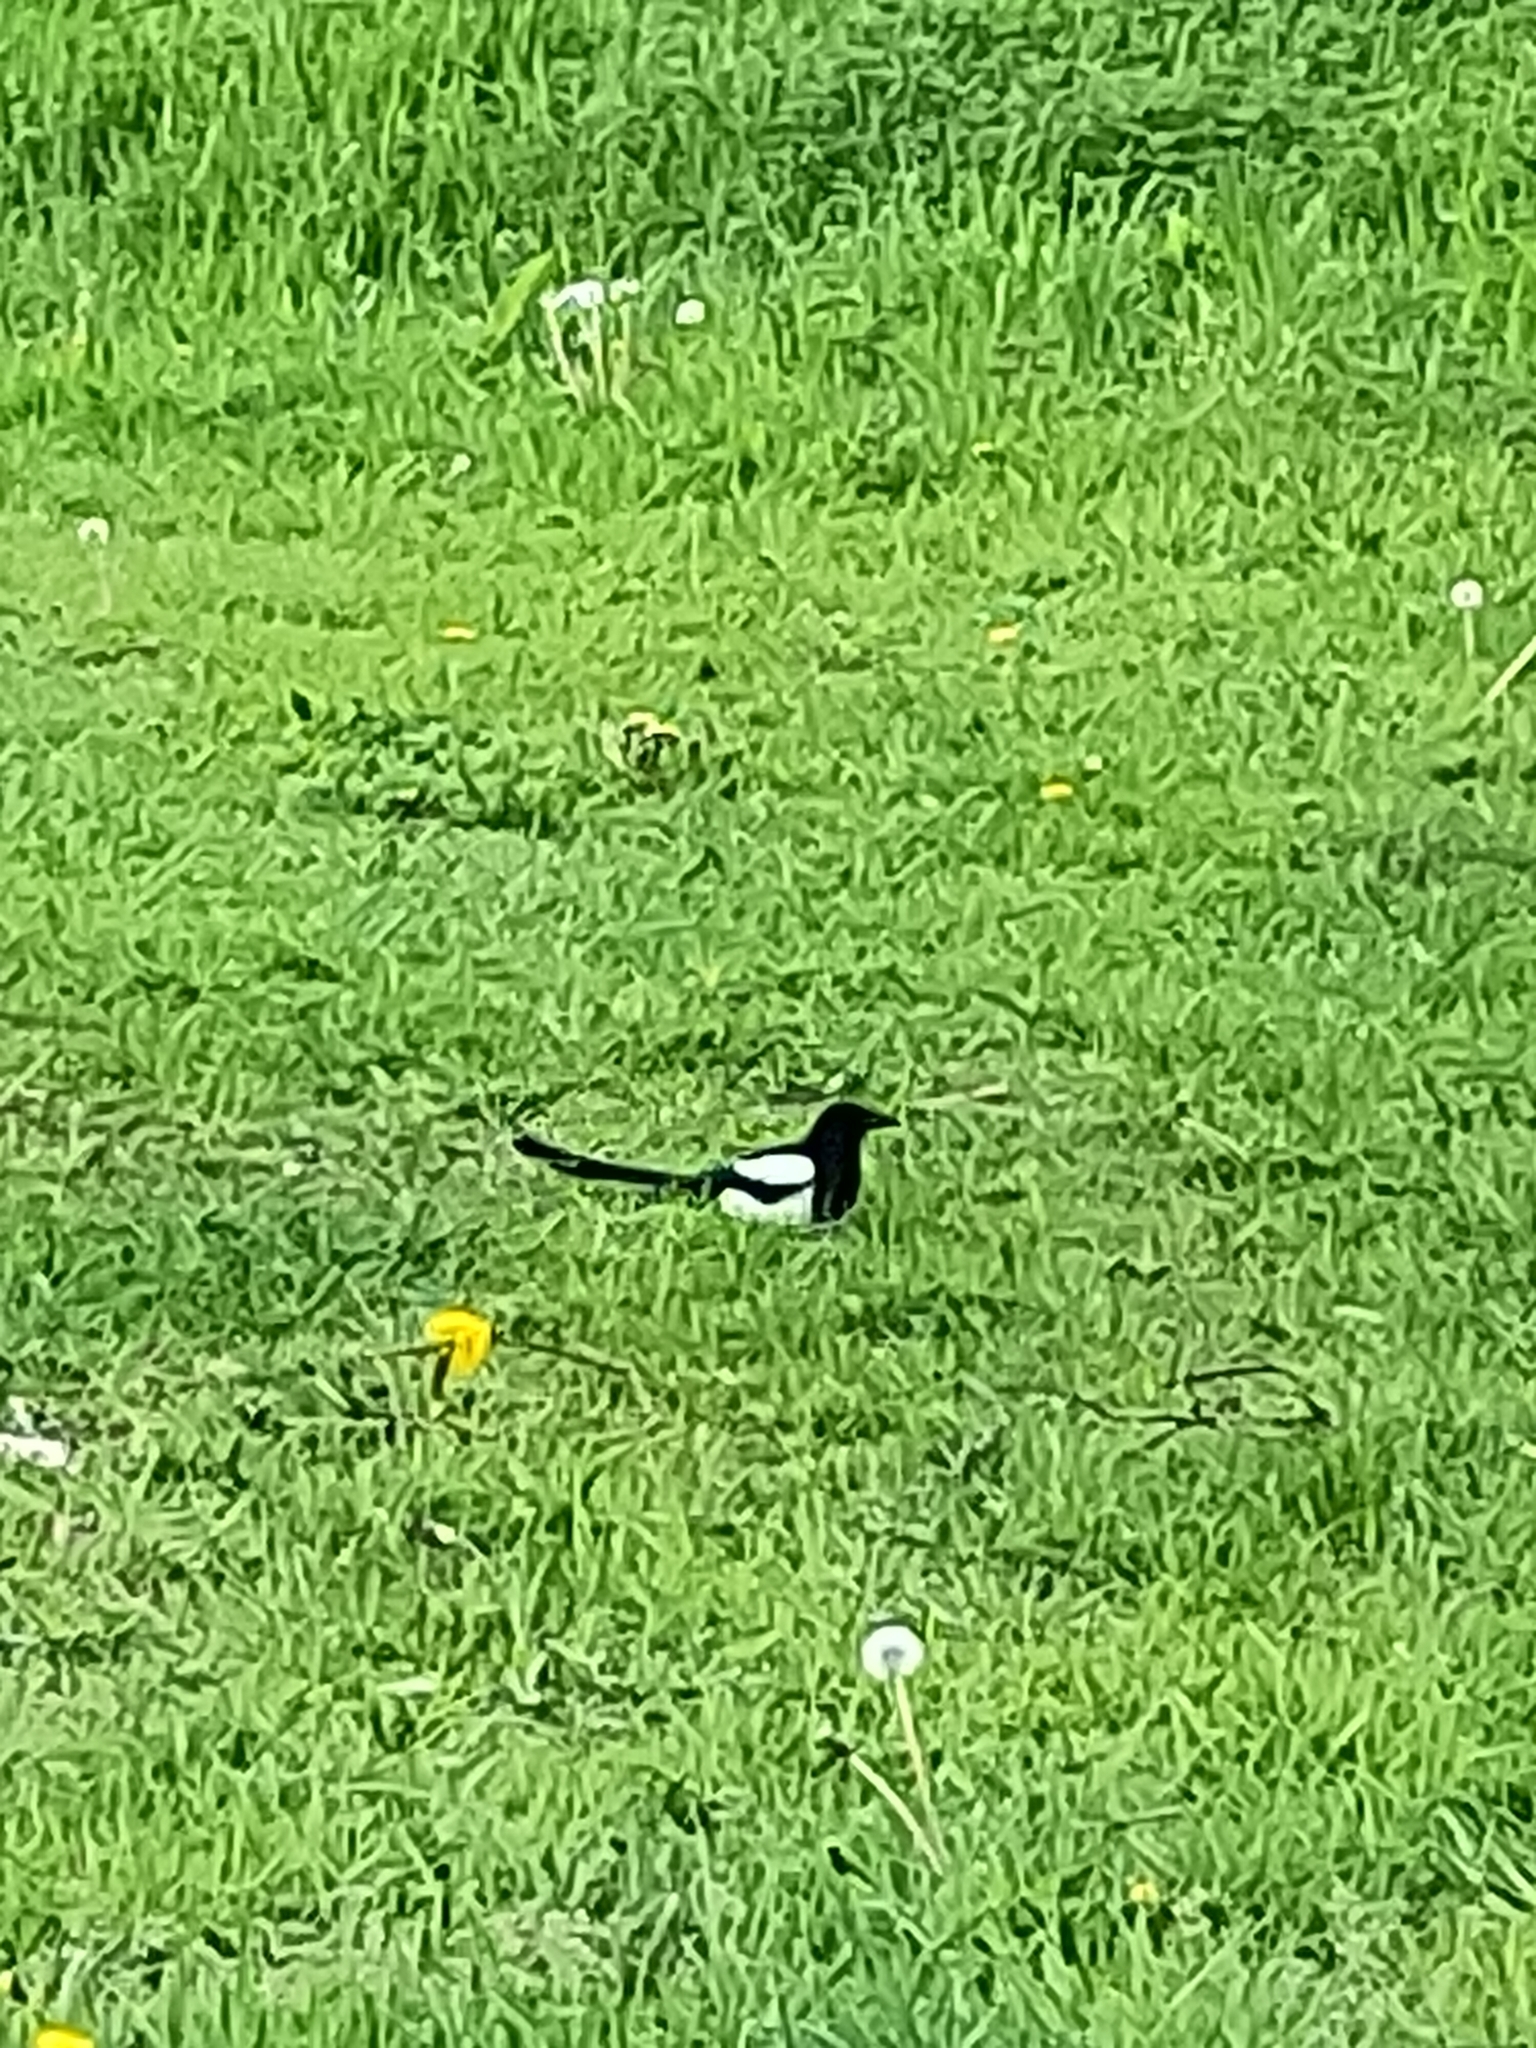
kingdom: Animalia
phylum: Chordata
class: Aves
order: Passeriformes
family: Corvidae
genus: Pica
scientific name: Pica pica
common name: Eurasian magpie
